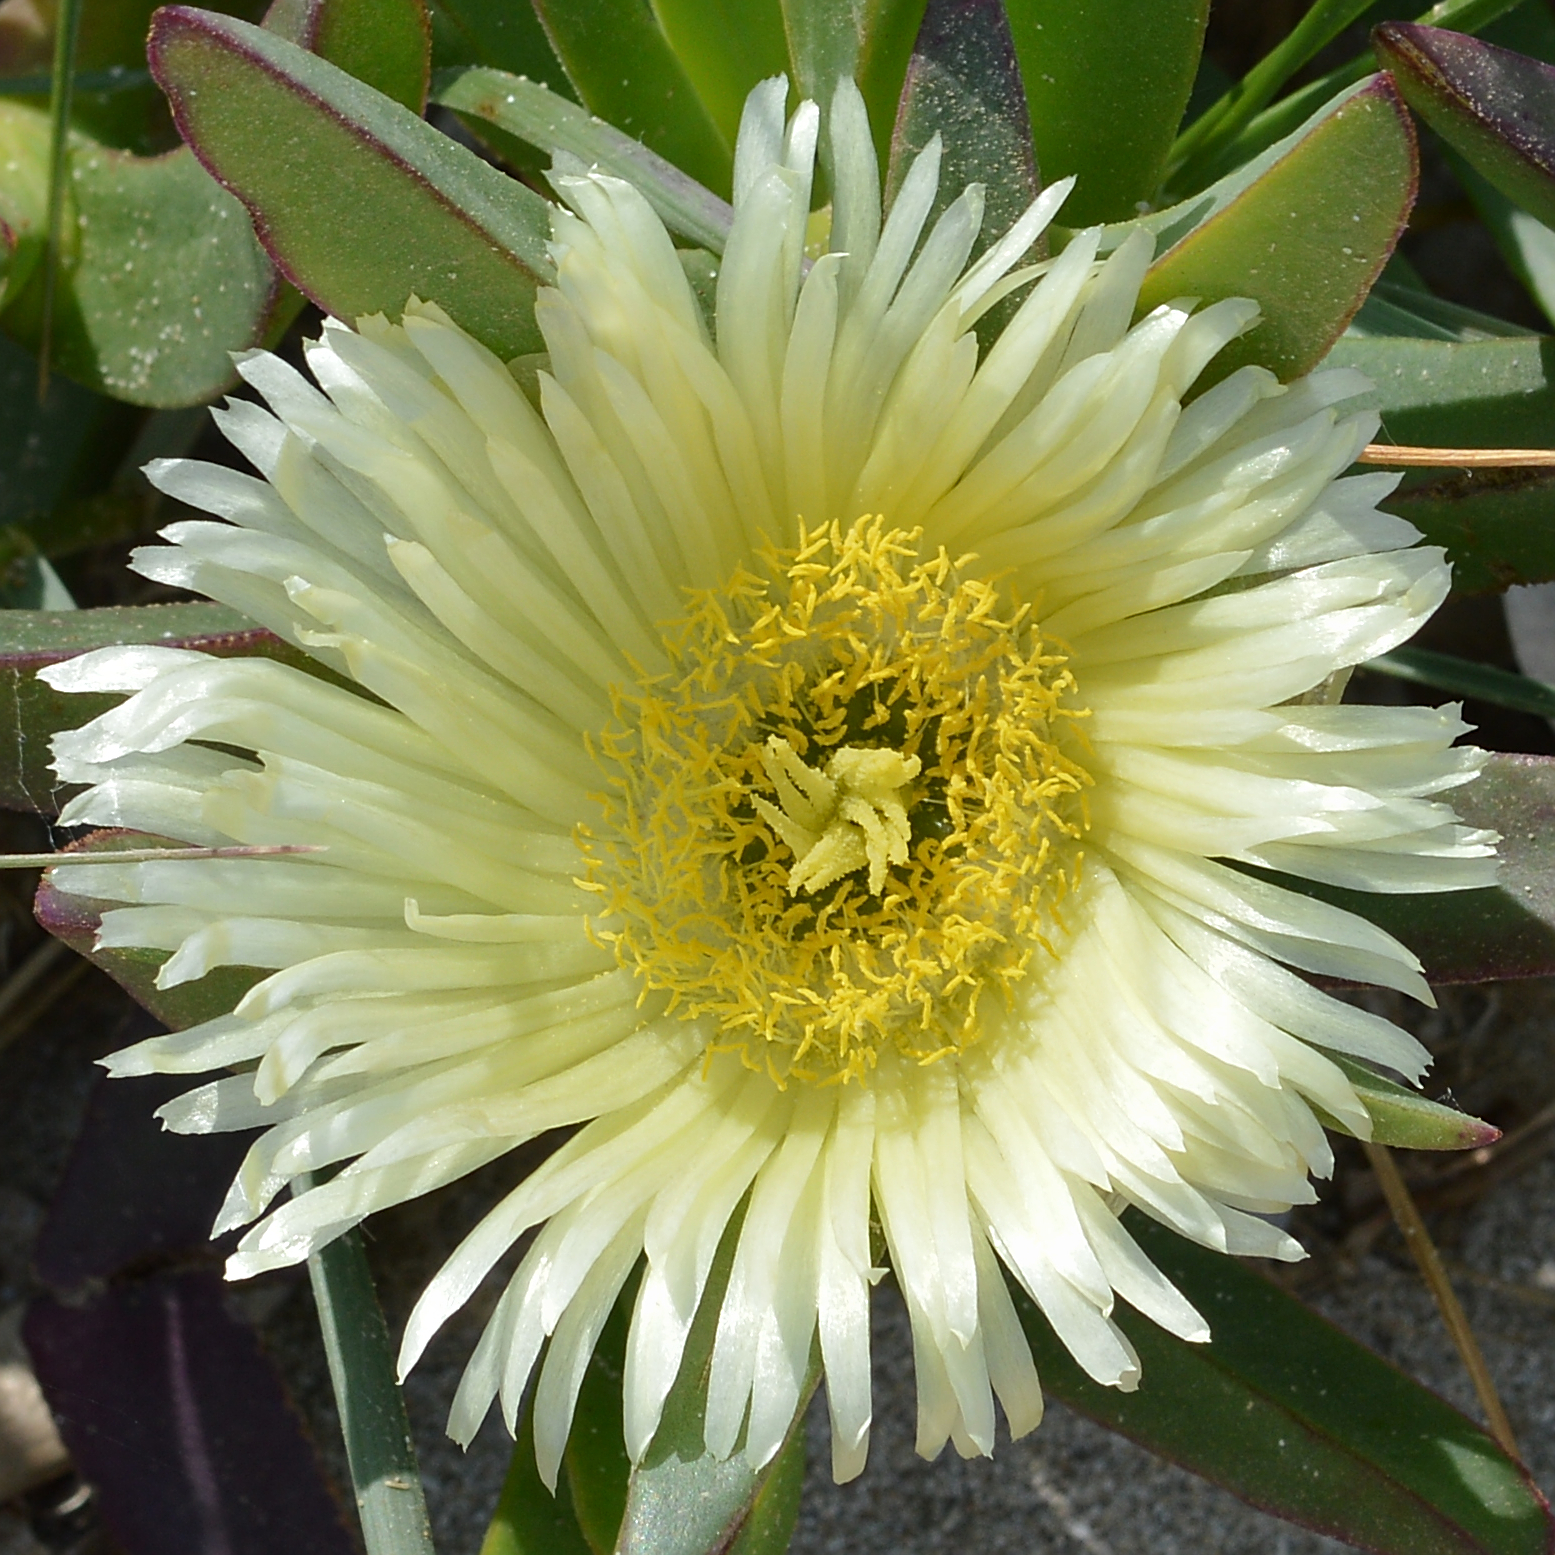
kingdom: Plantae
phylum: Tracheophyta
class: Magnoliopsida
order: Caryophyllales
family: Aizoaceae
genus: Carpobrotus
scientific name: Carpobrotus edulis
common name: Hottentot-fig
